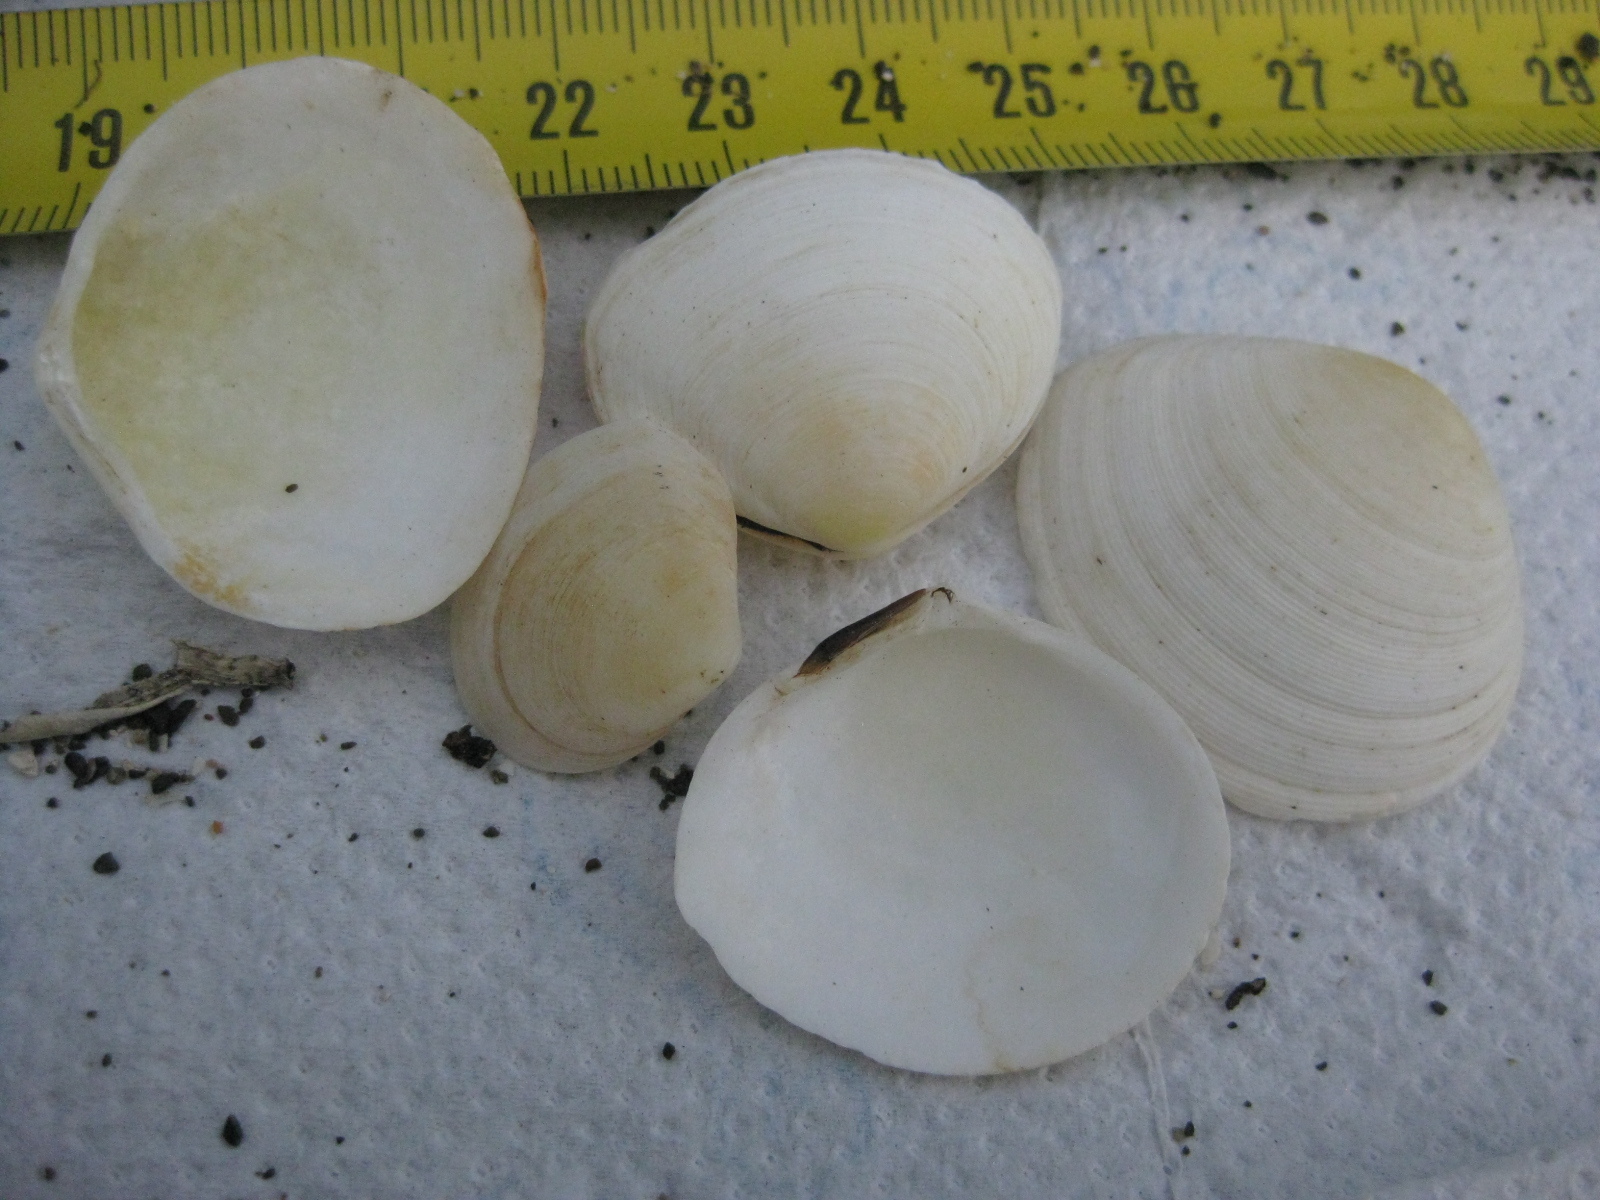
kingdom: Animalia
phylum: Mollusca
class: Bivalvia
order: Cardiida
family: Tellinidae
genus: Pseudarcopagia
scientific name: Pseudarcopagia disculus
